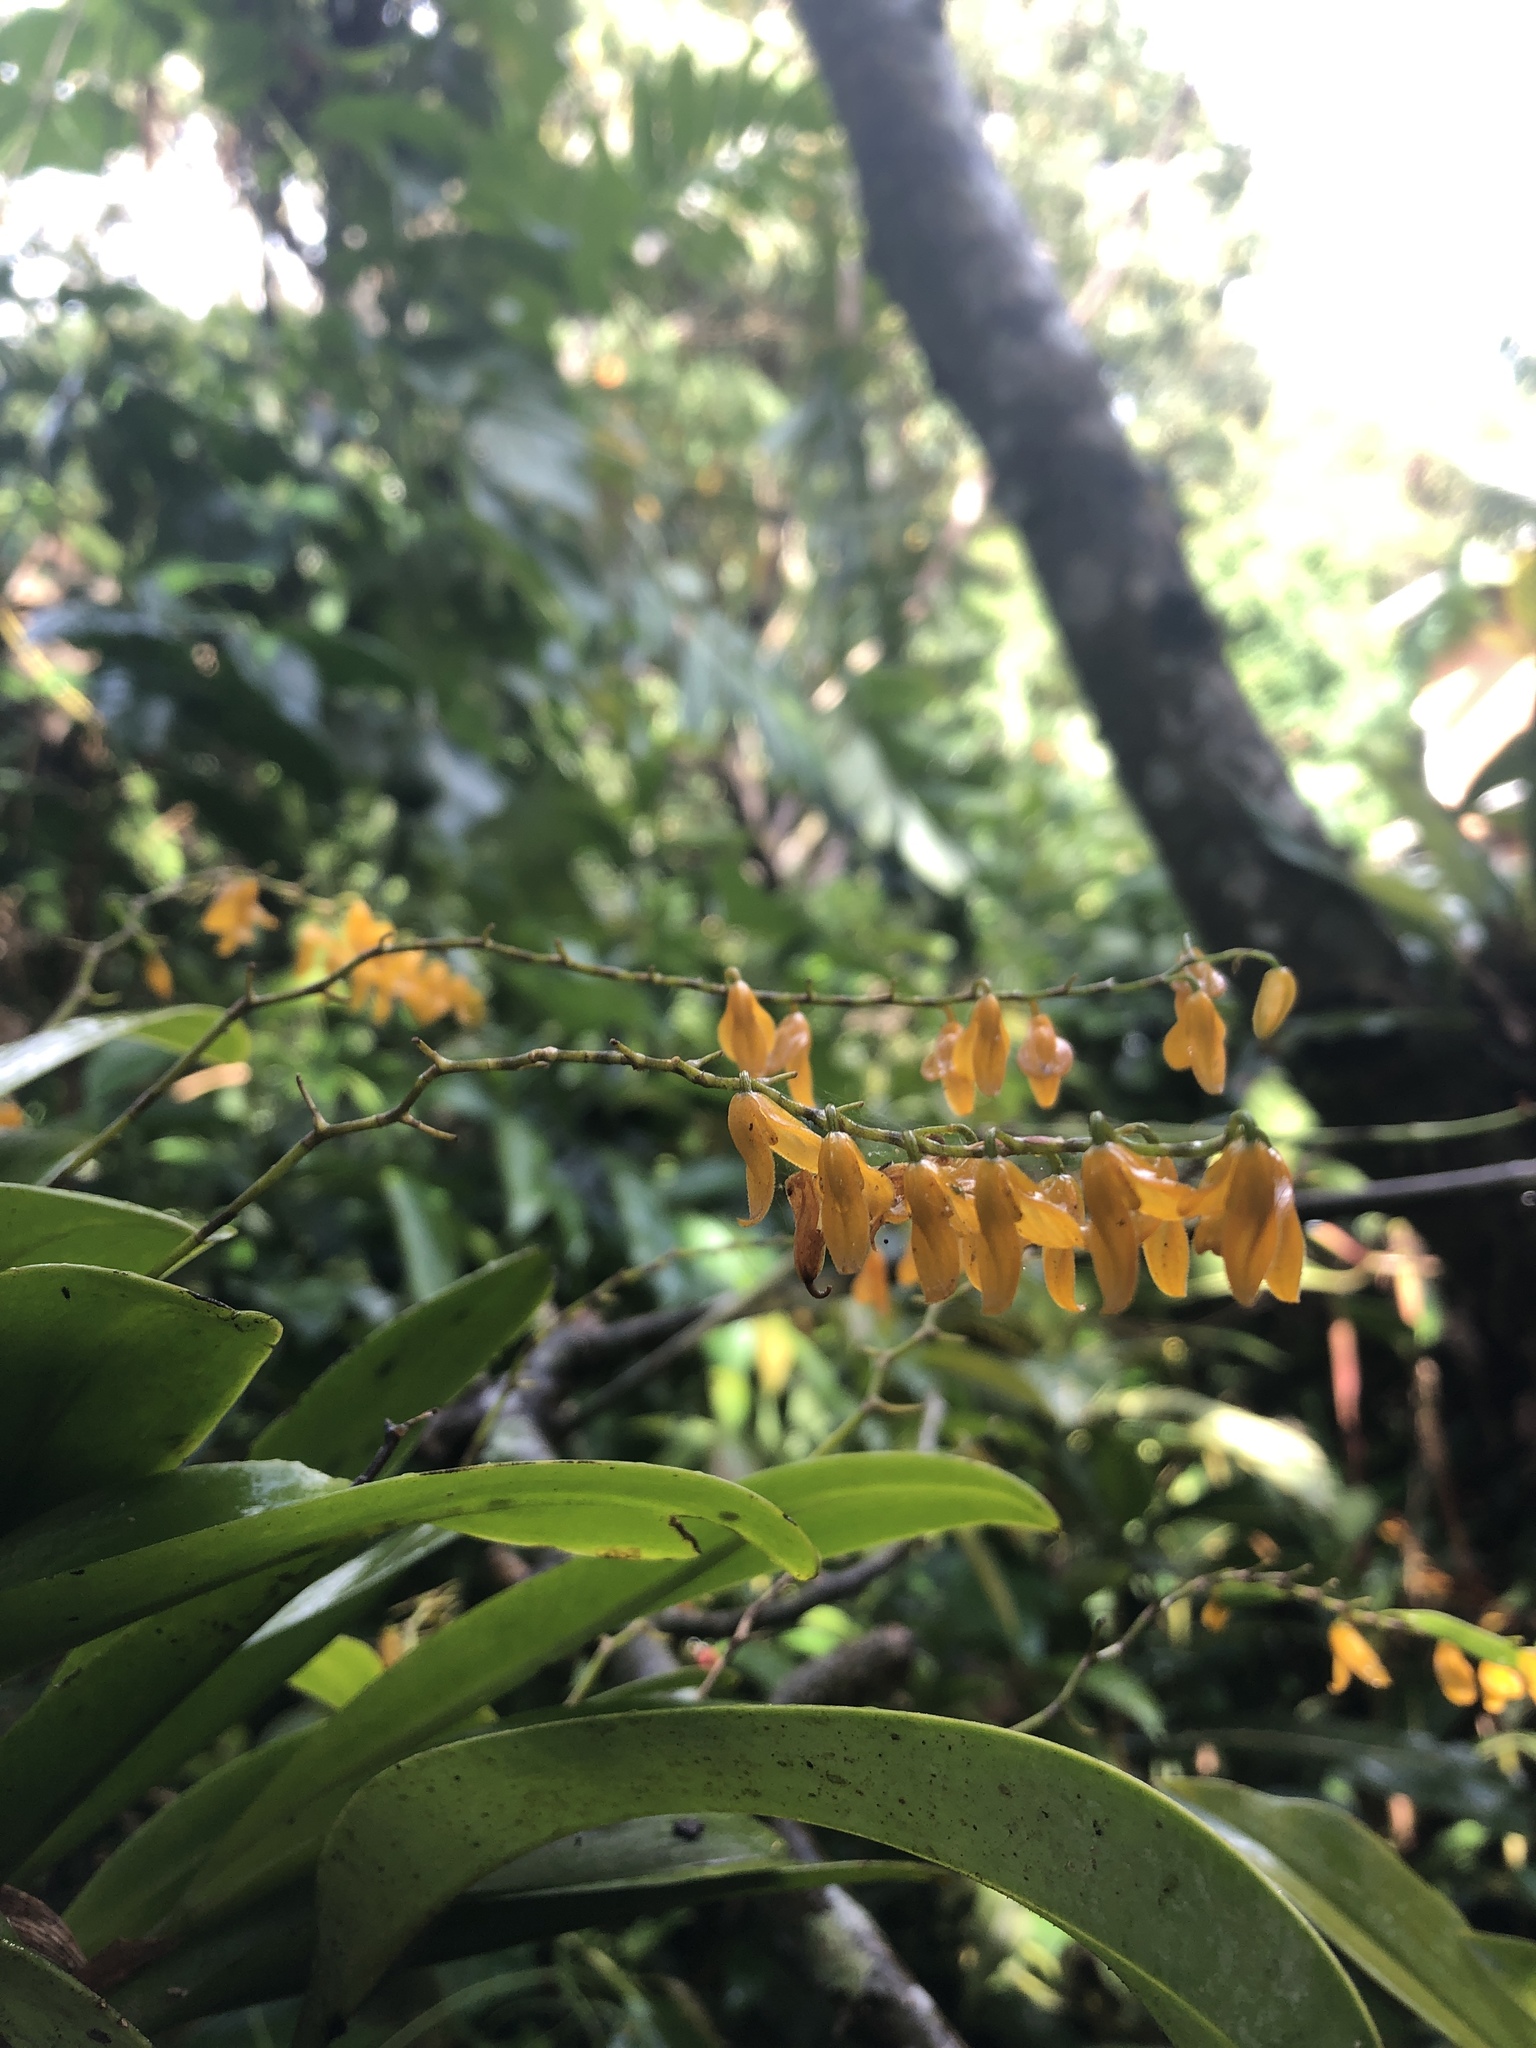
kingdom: Plantae
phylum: Tracheophyta
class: Liliopsida
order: Asparagales
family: Orchidaceae
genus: Stelis
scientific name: Stelis immersa
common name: Sunken pleurothallis
